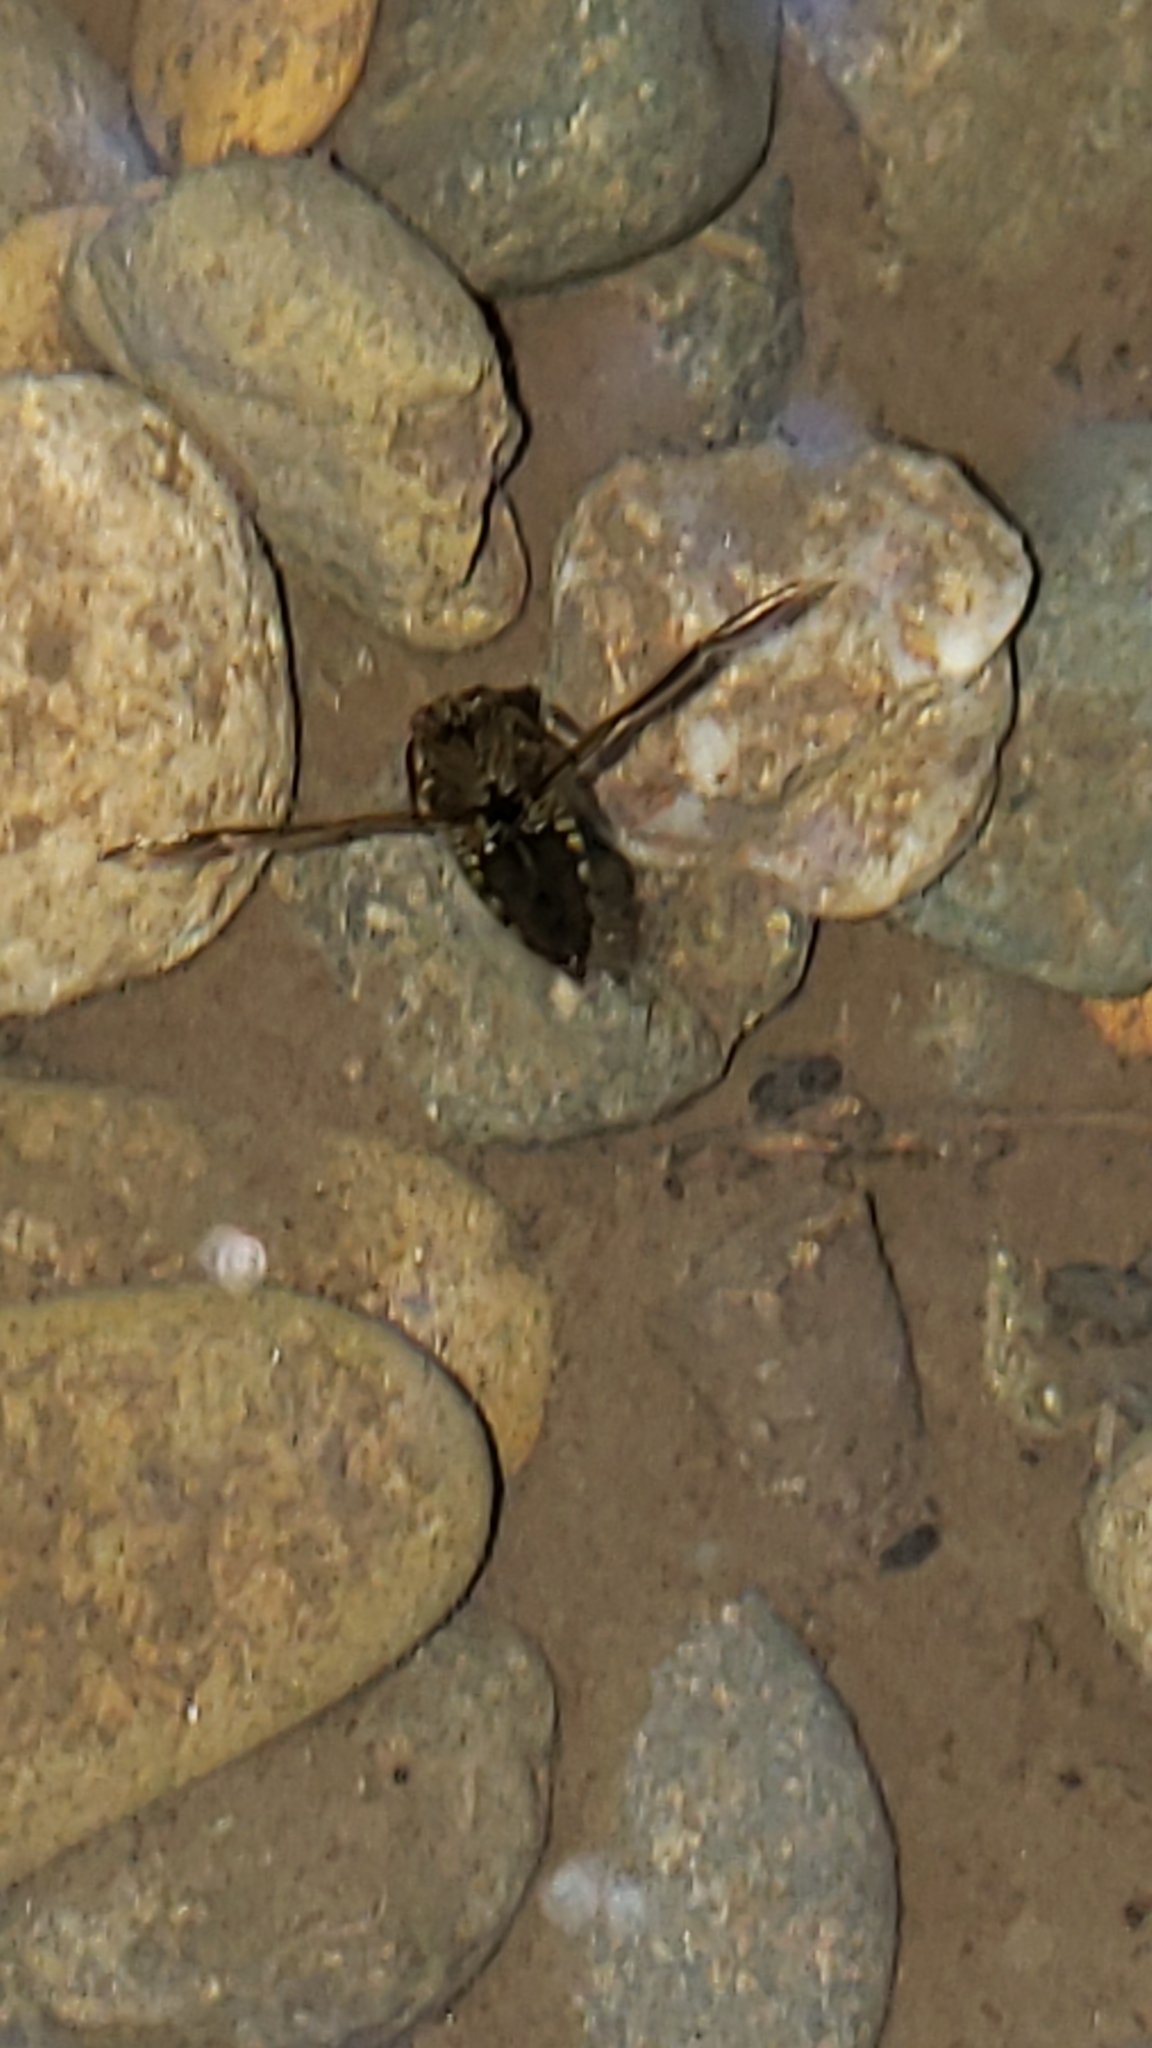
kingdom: Animalia
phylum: Arthropoda
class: Insecta
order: Hemiptera
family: Notonectidae
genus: Notonecta
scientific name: Notonecta
